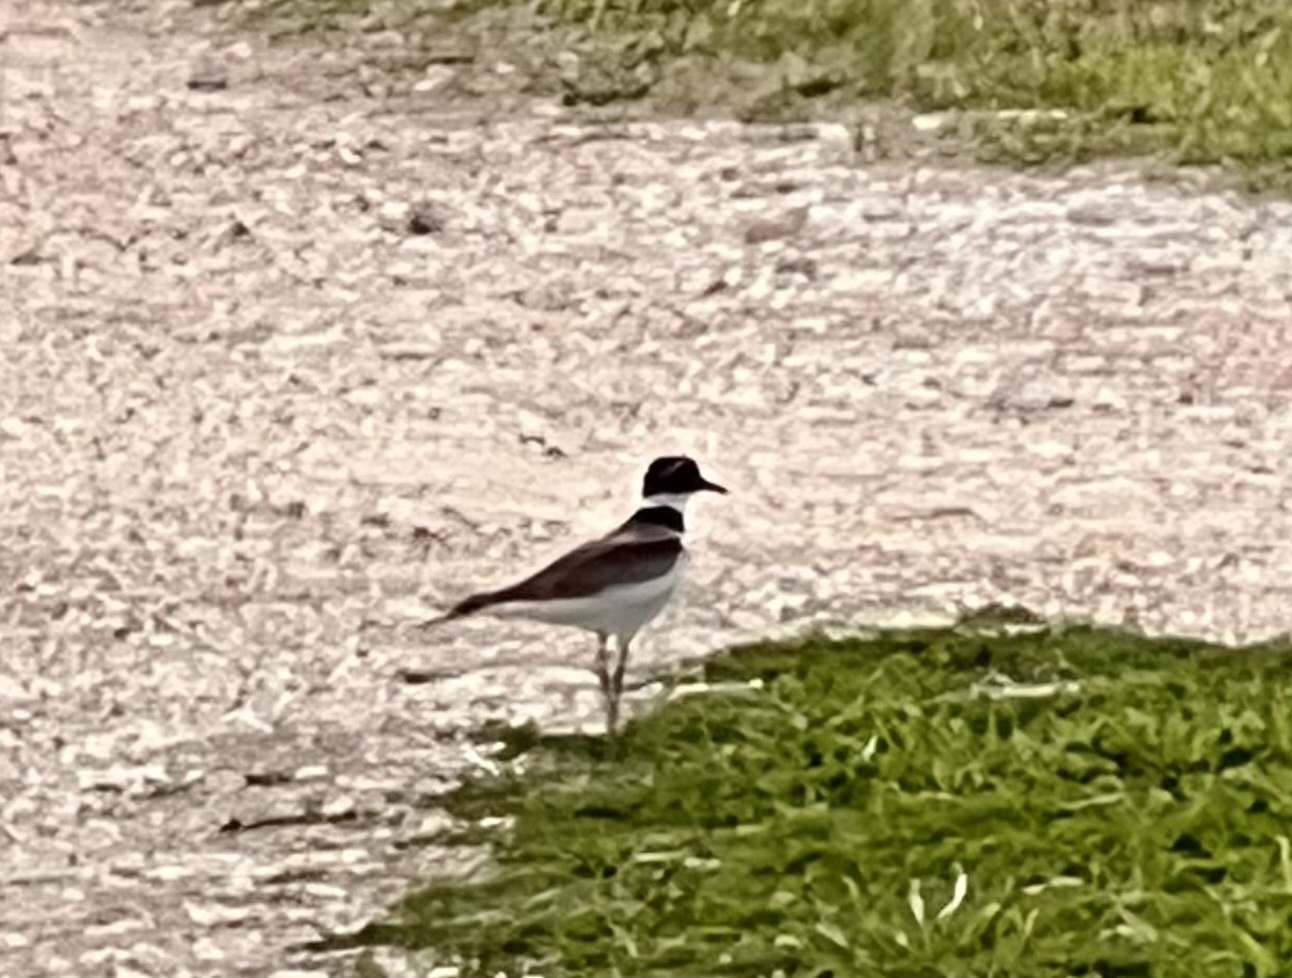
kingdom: Animalia
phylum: Chordata
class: Aves
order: Charadriiformes
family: Charadriidae
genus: Charadrius
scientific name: Charadrius vociferus
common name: Killdeer
